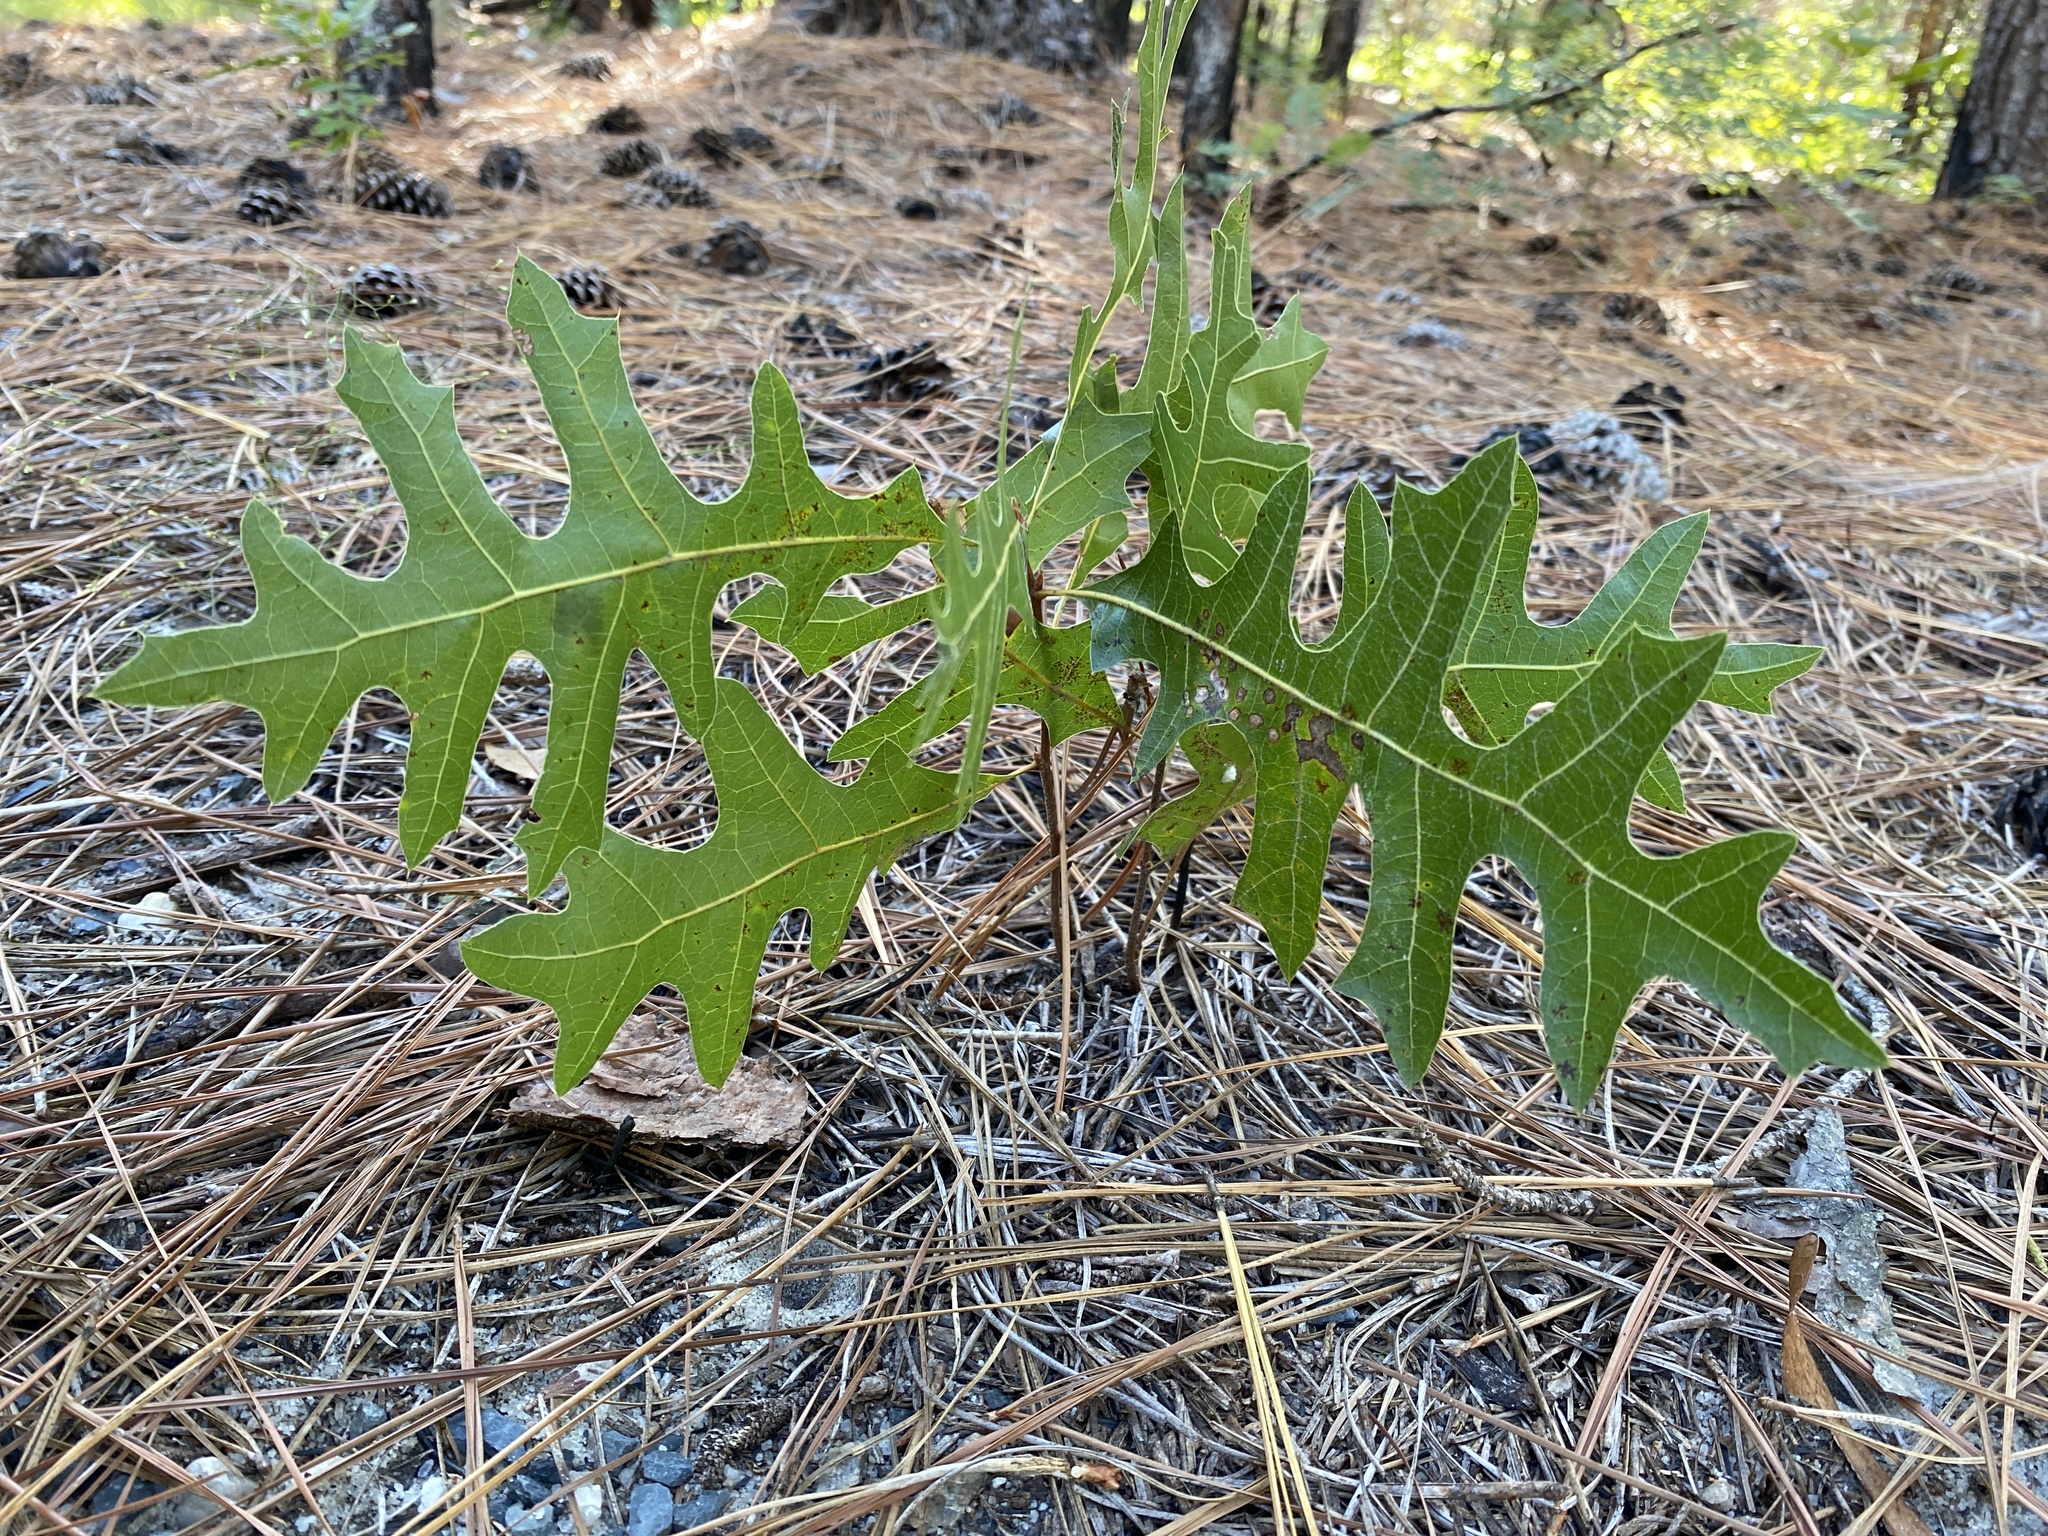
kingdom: Plantae
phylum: Tracheophyta
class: Magnoliopsida
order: Fagales
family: Fagaceae
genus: Quercus
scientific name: Quercus laevis
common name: Turkey oak
